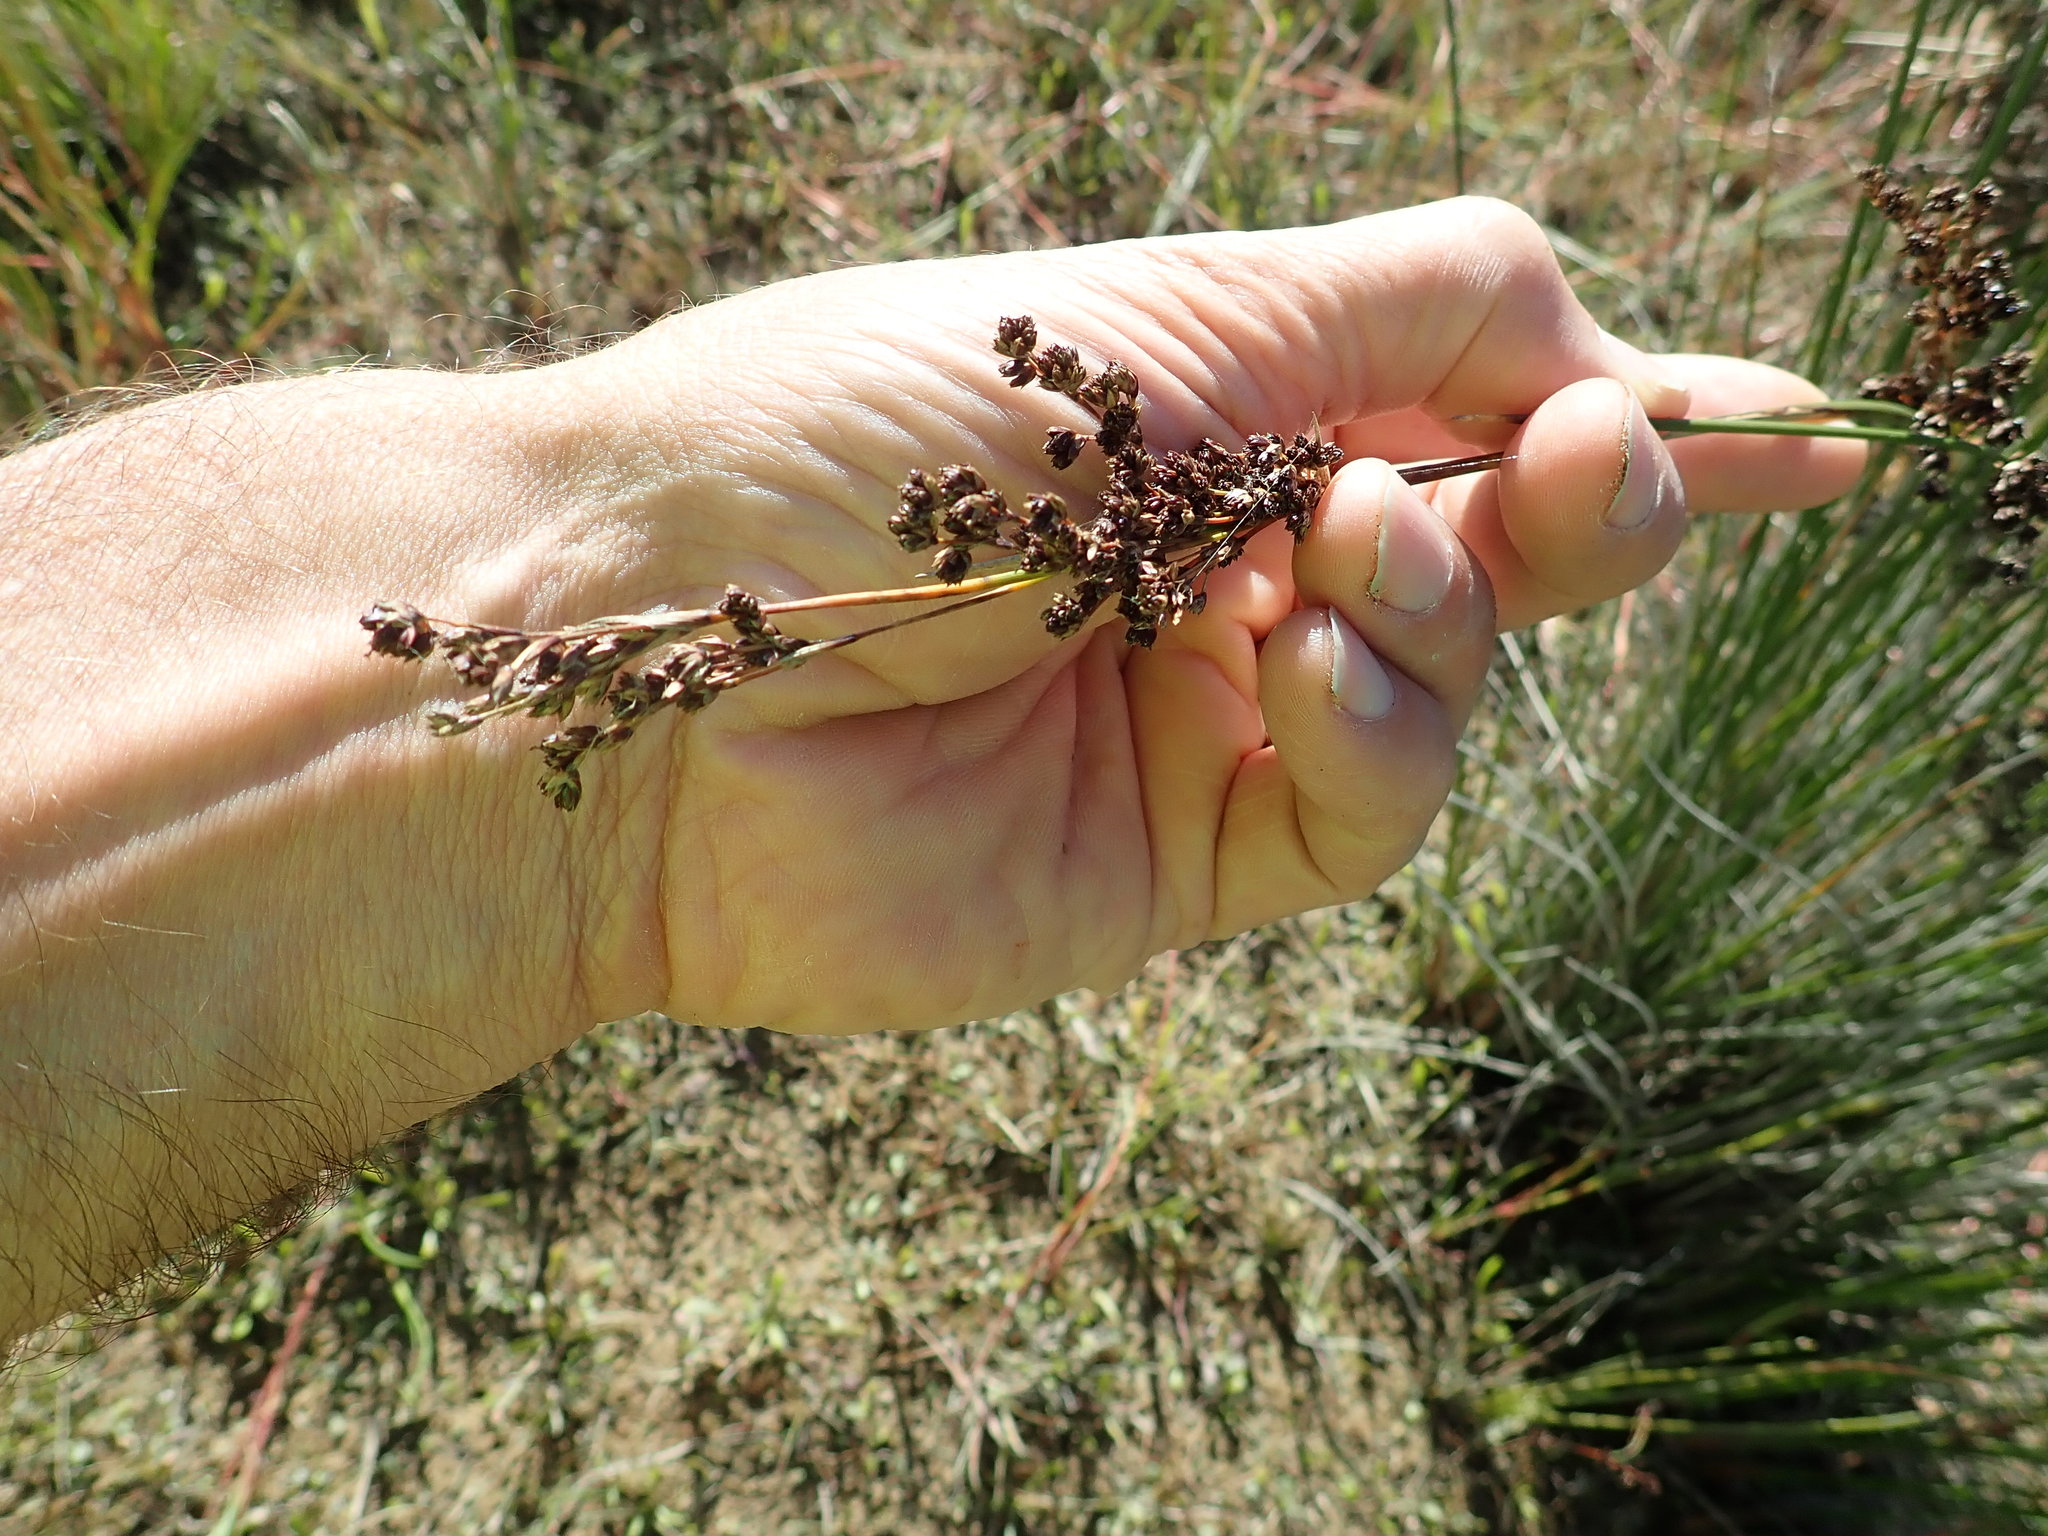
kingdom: Plantae
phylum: Tracheophyta
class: Liliopsida
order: Poales
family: Juncaceae
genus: Juncus
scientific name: Juncus kraussii
